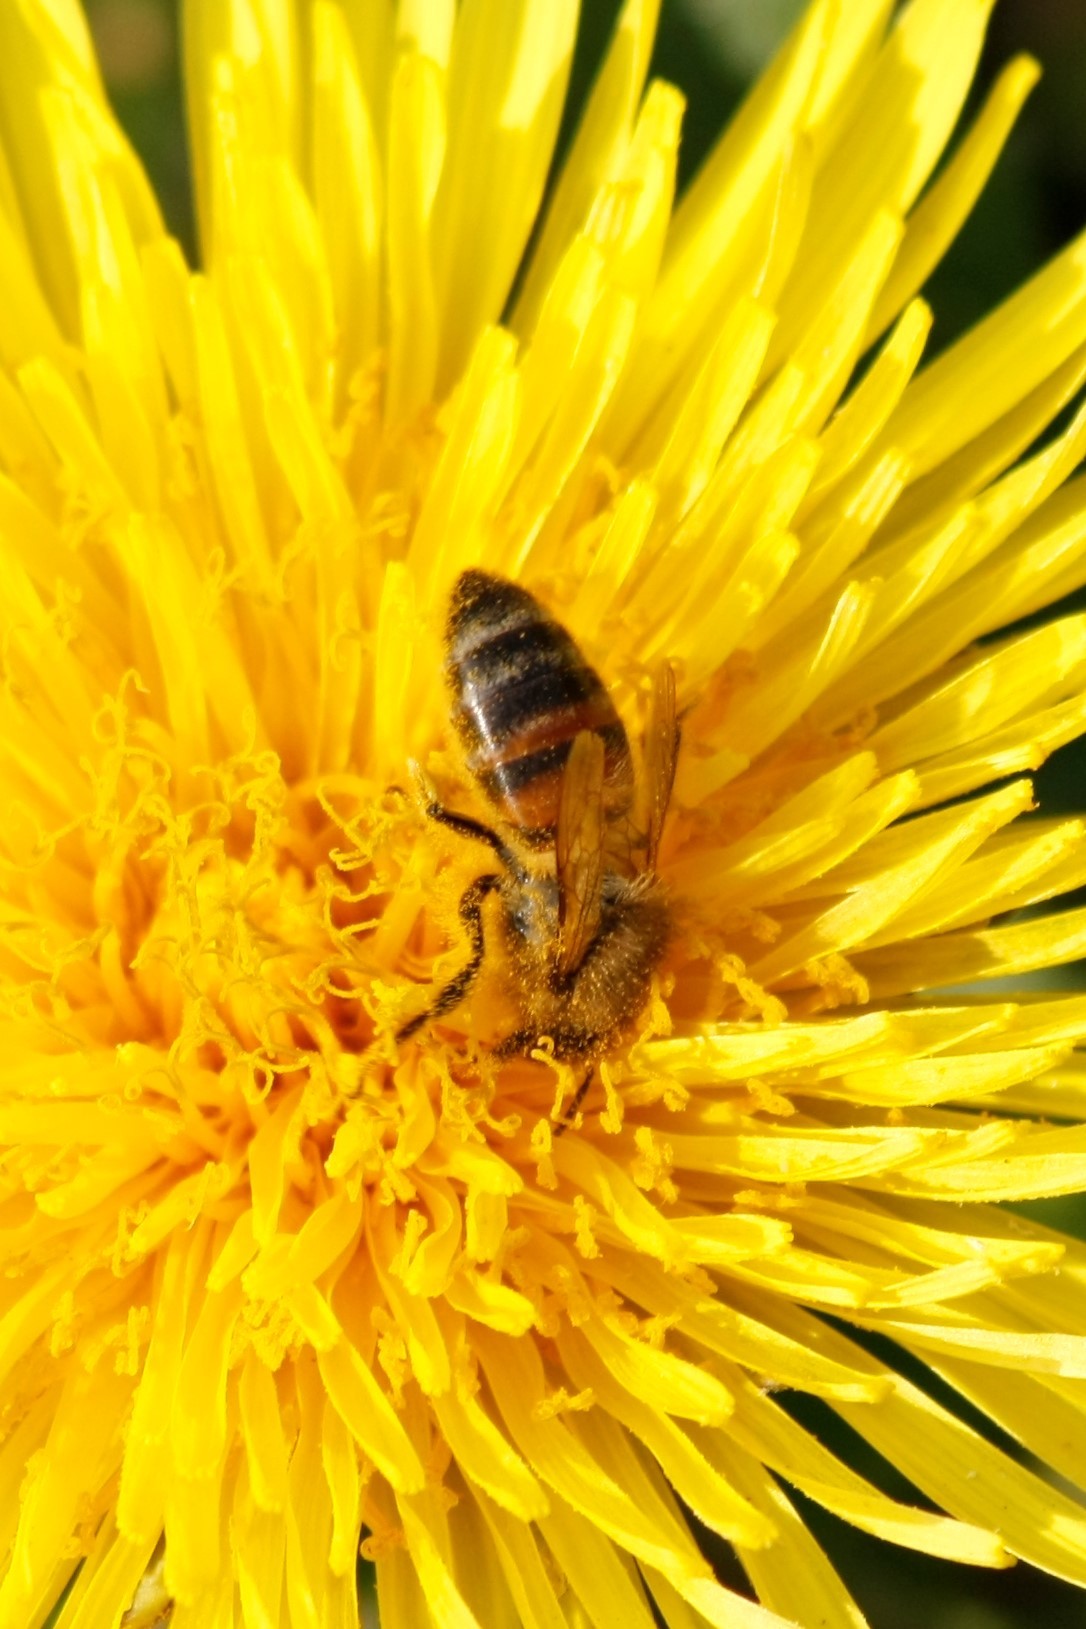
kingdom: Animalia
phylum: Arthropoda
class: Insecta
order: Hymenoptera
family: Apidae
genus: Apis
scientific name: Apis mellifera
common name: Honey bee
